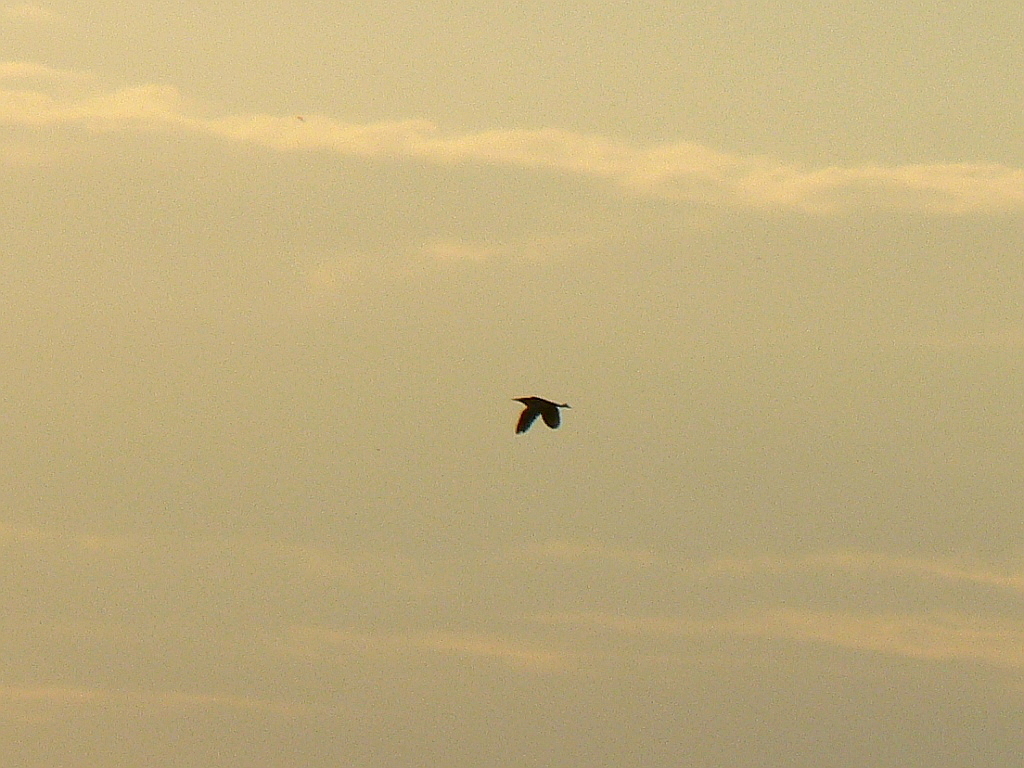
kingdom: Animalia
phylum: Chordata
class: Aves
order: Pelecaniformes
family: Ardeidae
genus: Botaurus
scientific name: Botaurus stellaris
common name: Eurasian bittern
